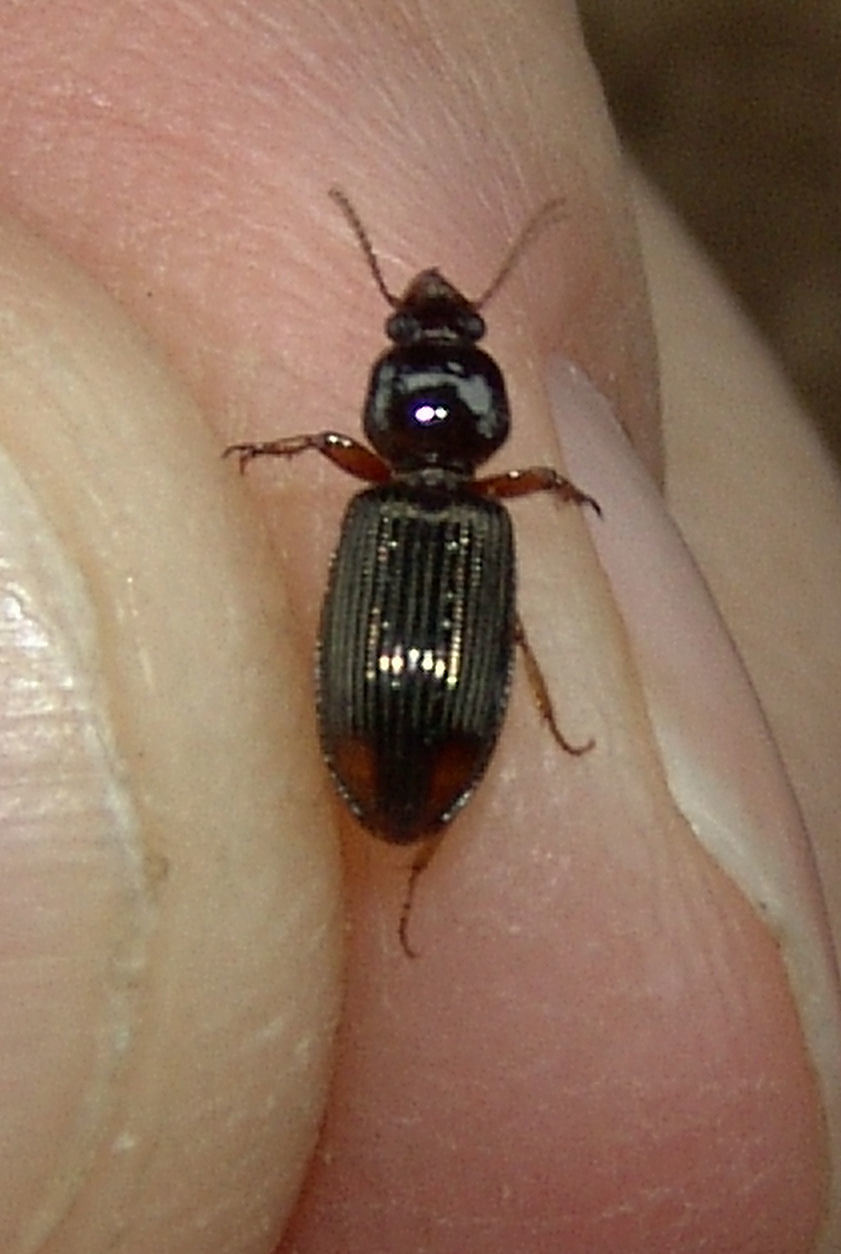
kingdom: Animalia
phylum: Arthropoda
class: Insecta
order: Coleoptera
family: Carabidae
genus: Aspidoglossa
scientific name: Aspidoglossa subangulata
